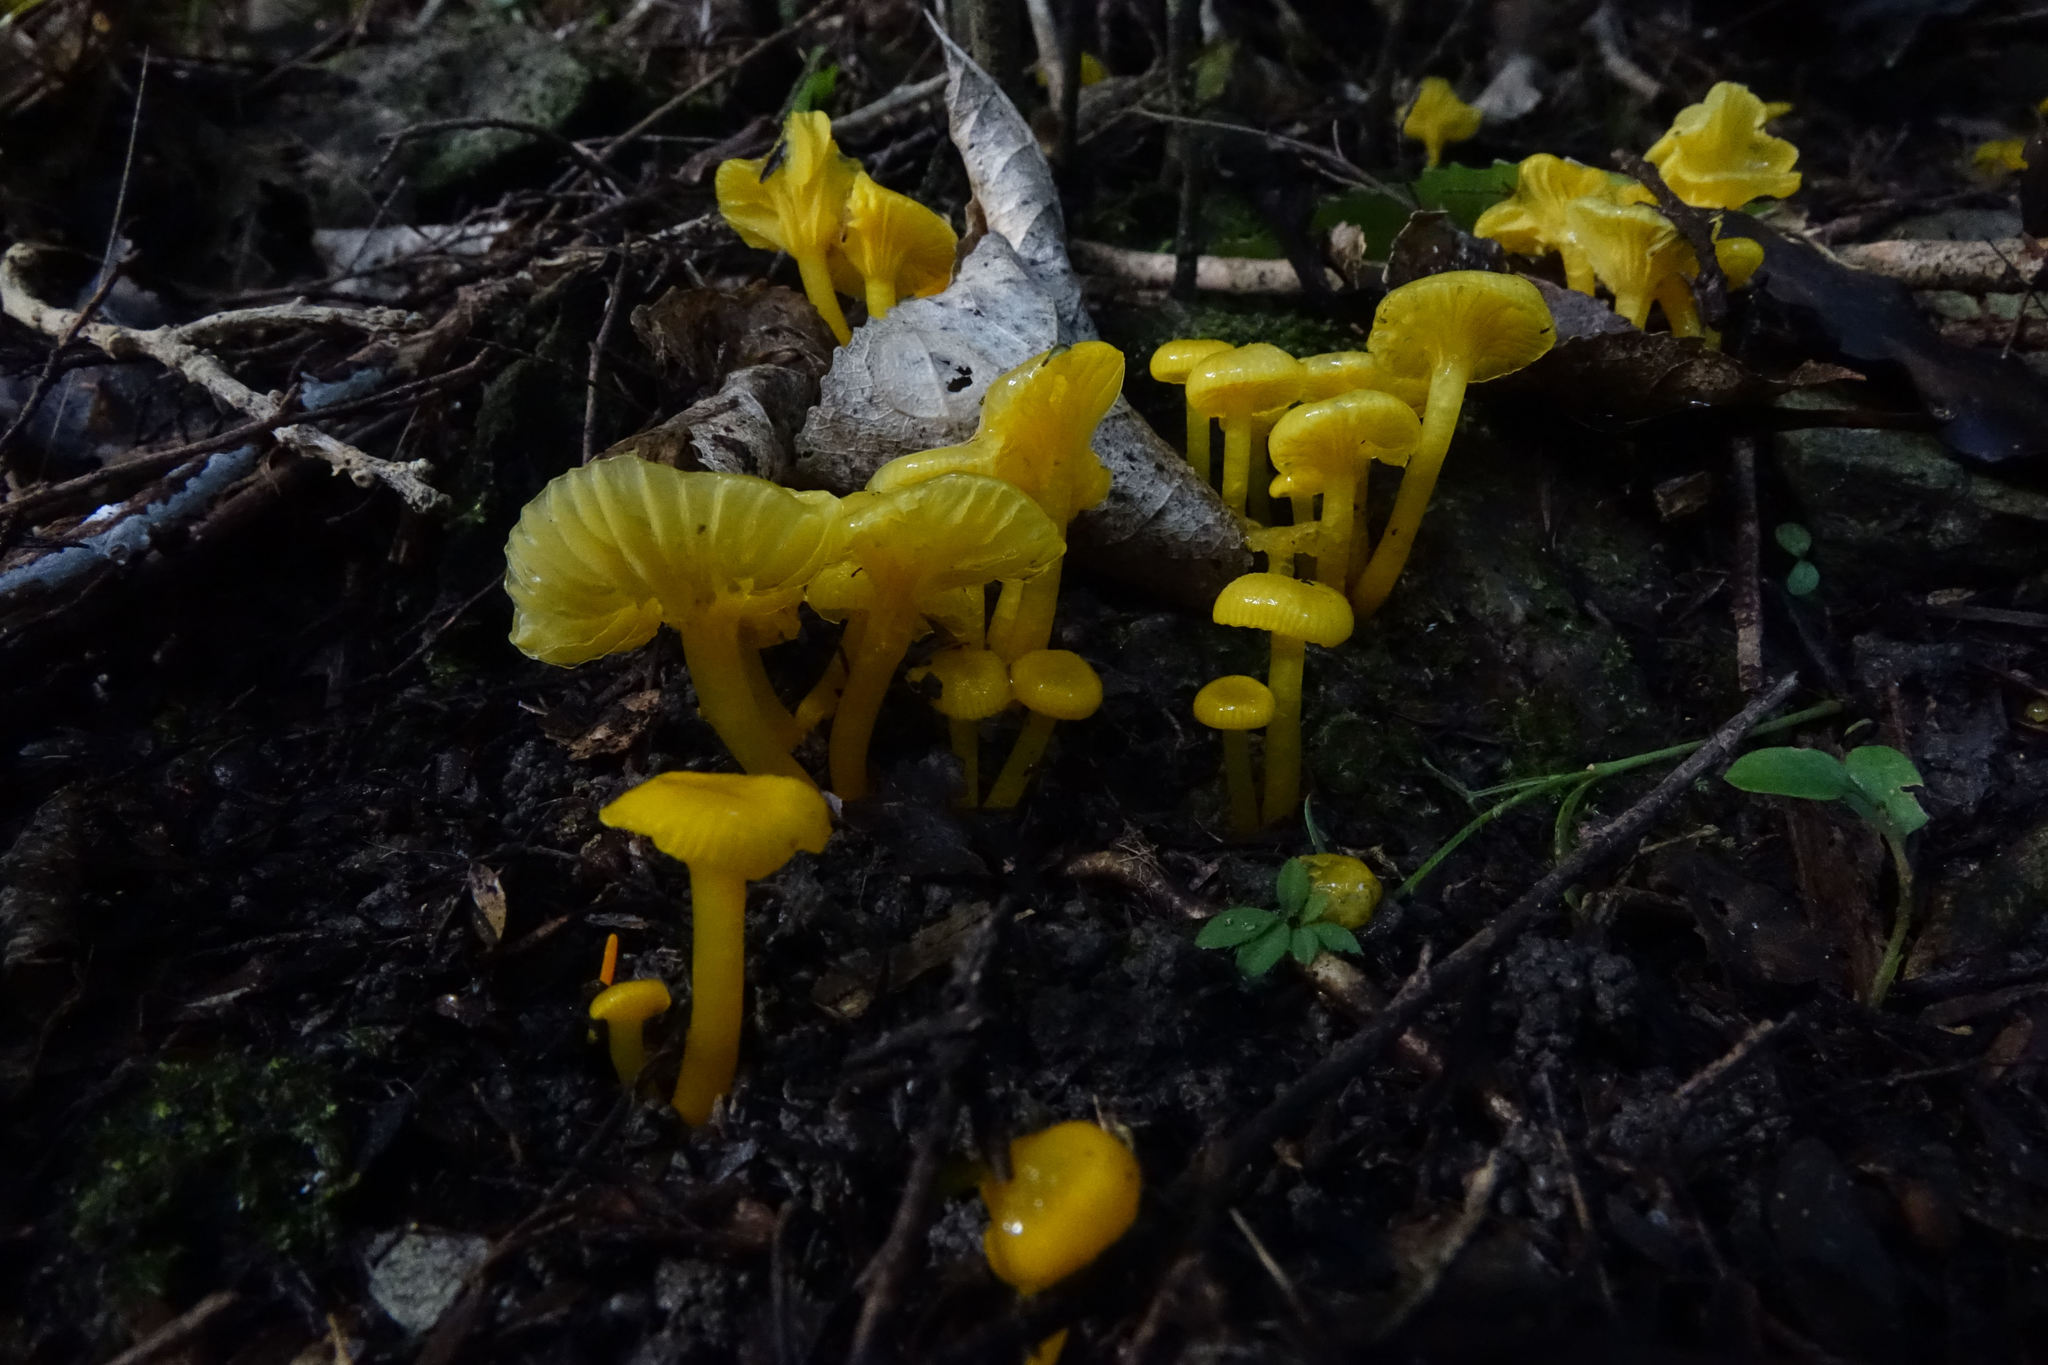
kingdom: Fungi
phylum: Basidiomycota
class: Agaricomycetes
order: Agaricales
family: Hygrophoraceae
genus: Gloioxanthomyces
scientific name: Gloioxanthomyces
